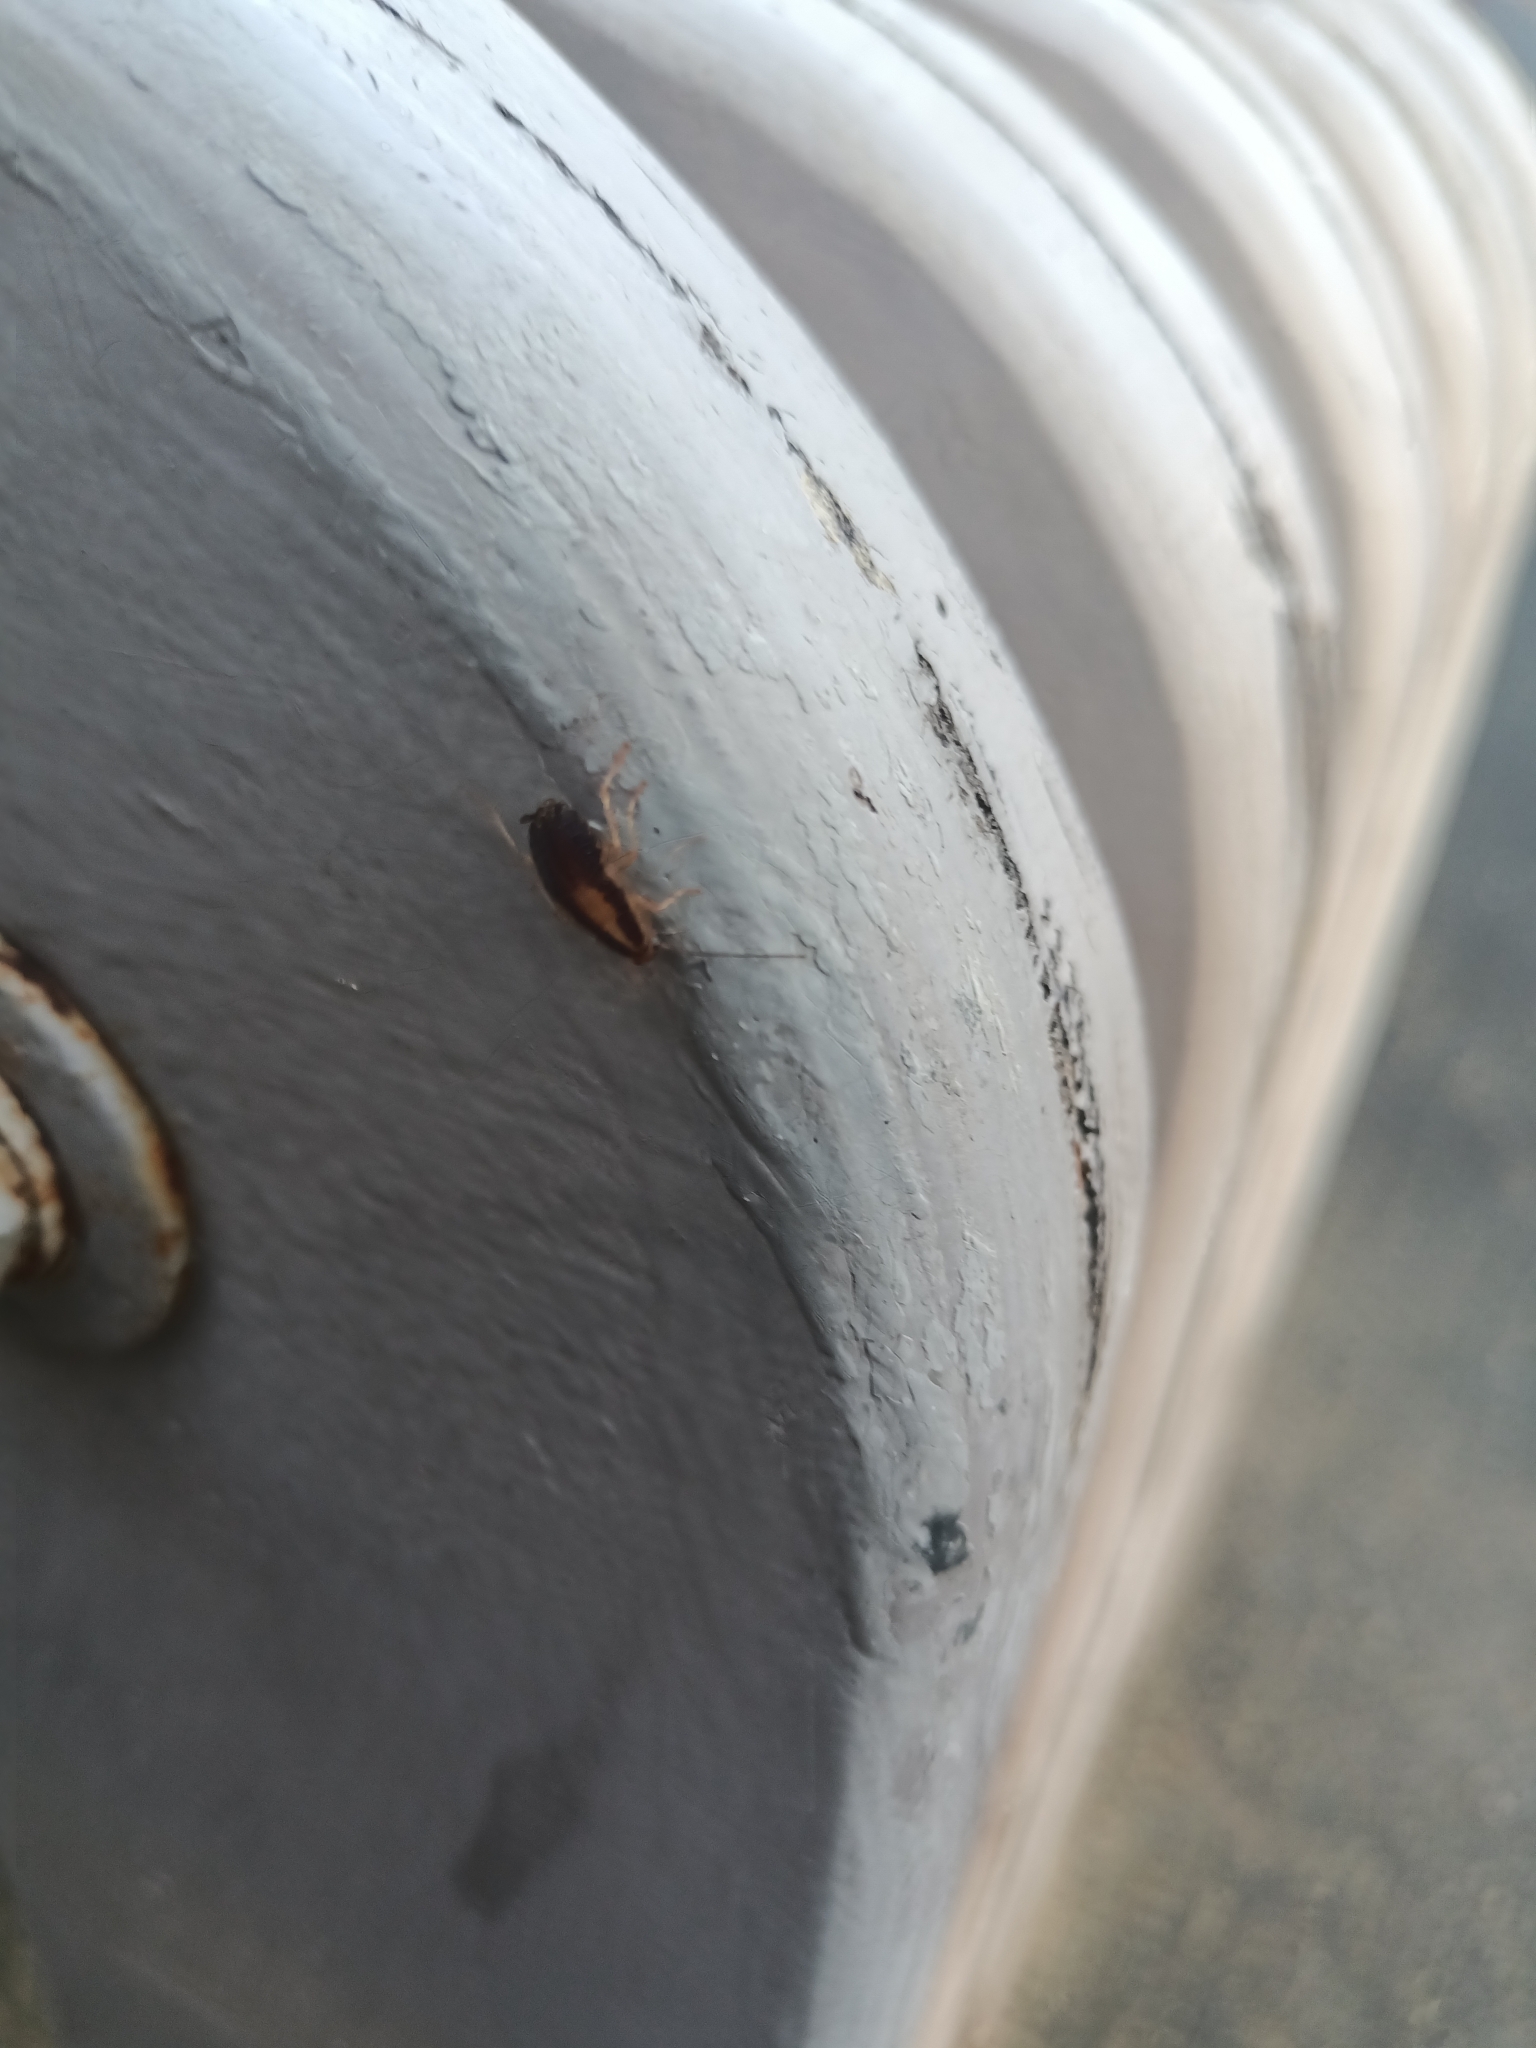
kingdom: Animalia
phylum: Arthropoda
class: Insecta
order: Blattodea
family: Ectobiidae
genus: Blattella
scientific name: Blattella germanica
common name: German cockroach
